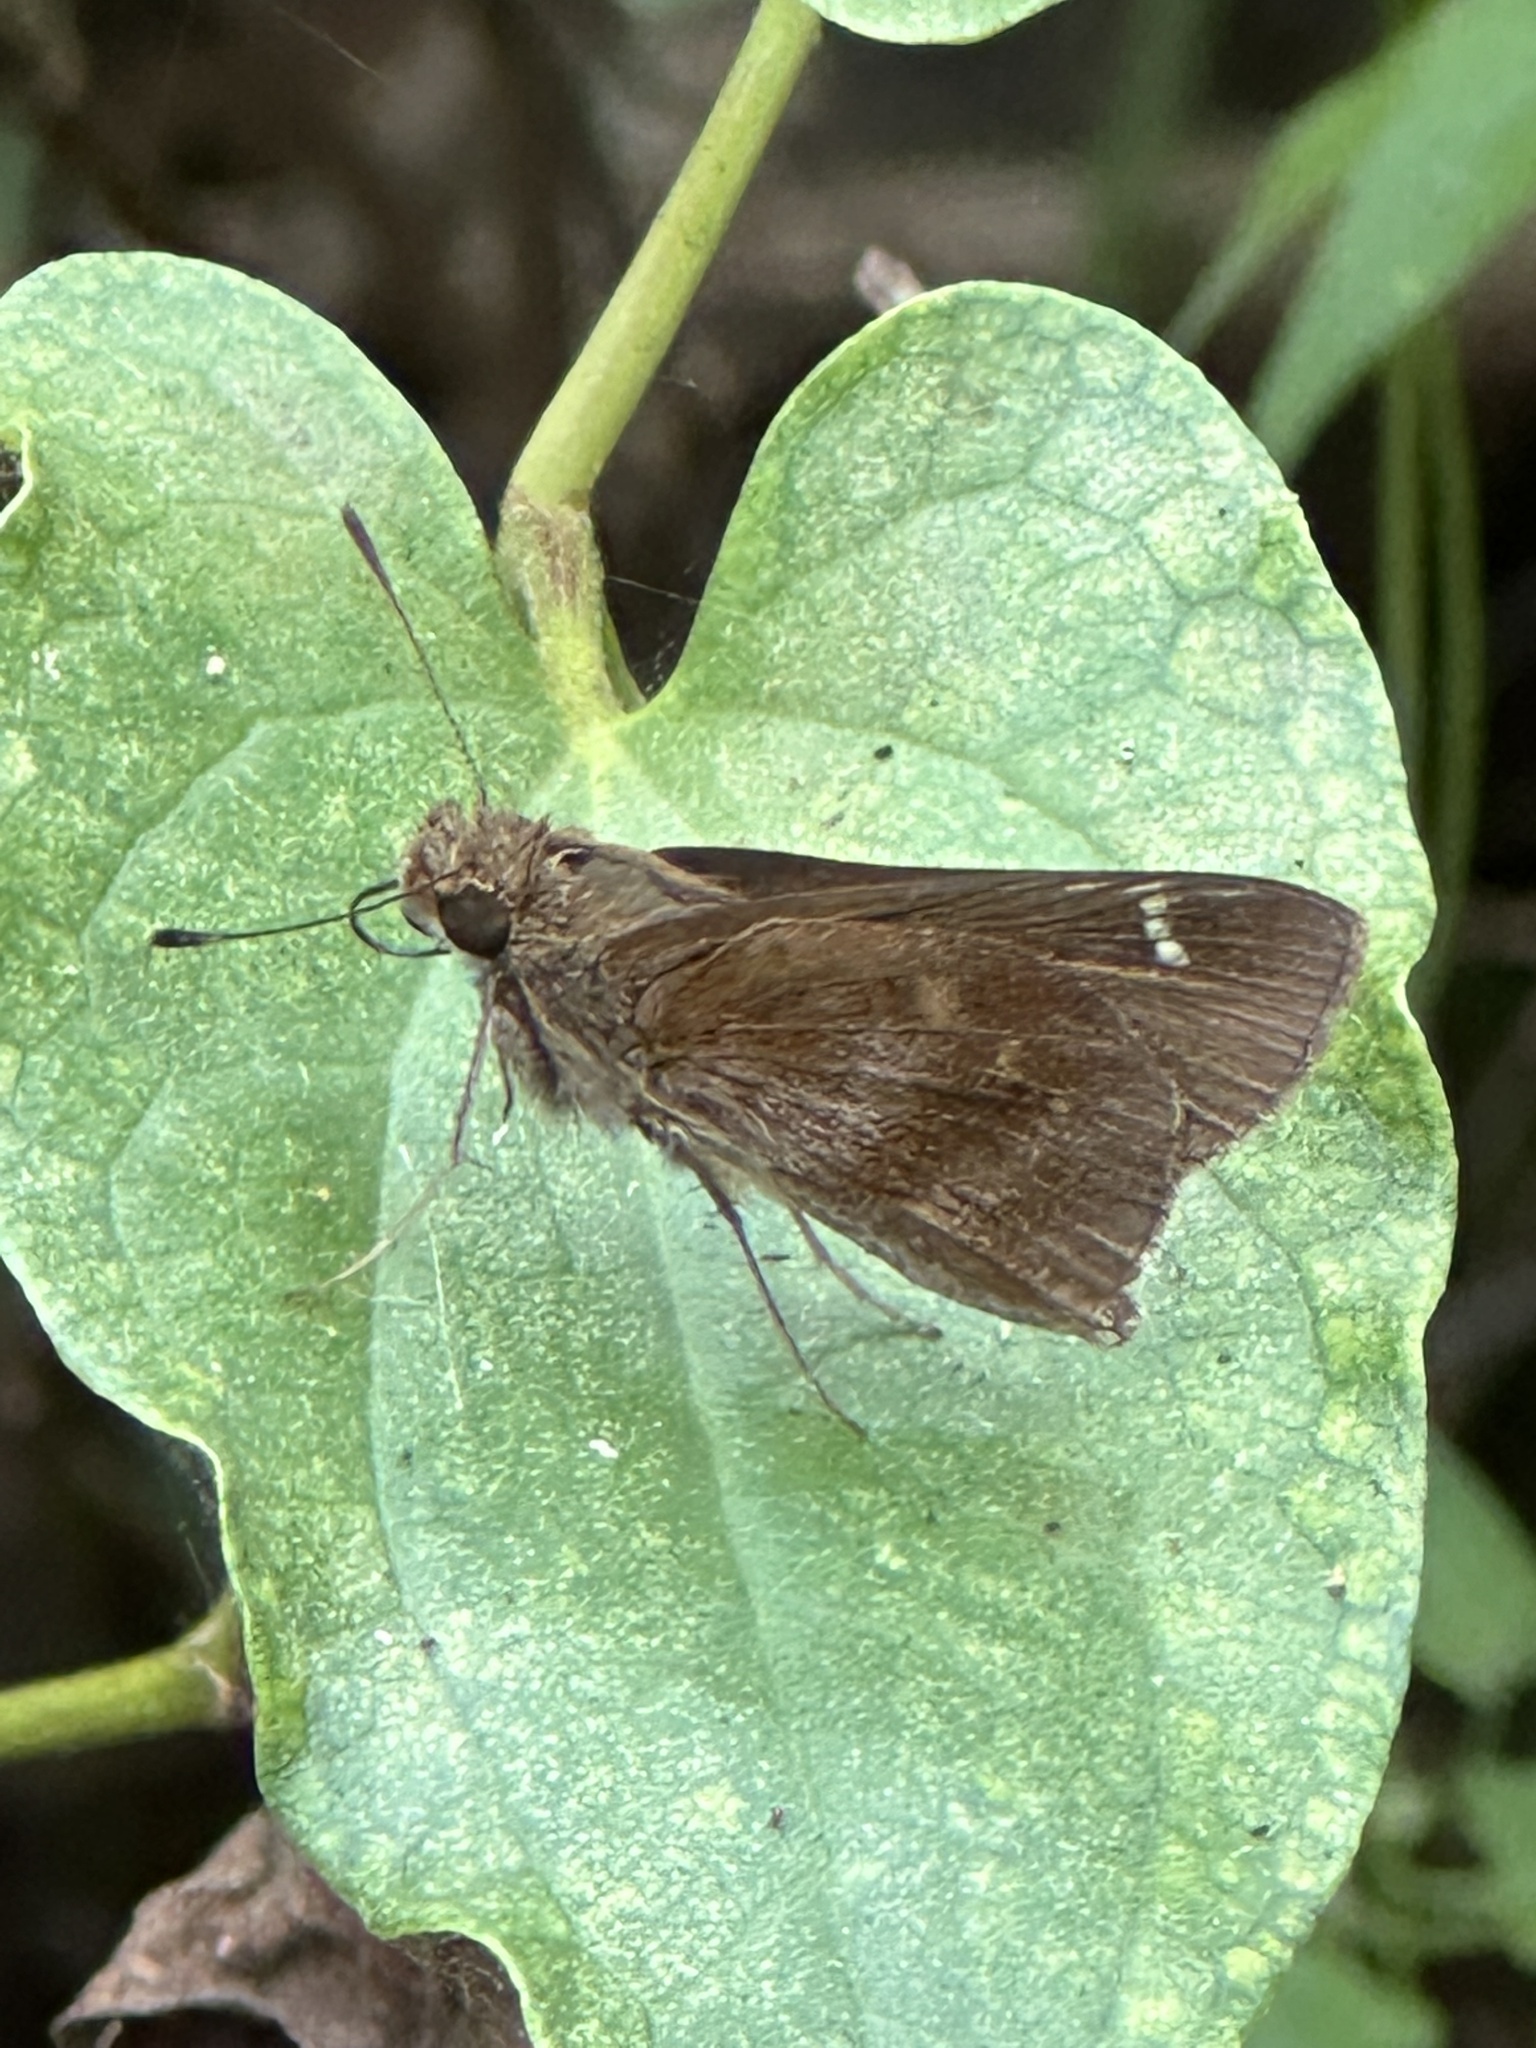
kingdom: Animalia
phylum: Arthropoda
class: Insecta
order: Lepidoptera
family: Hesperiidae
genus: Lerema
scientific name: Lerema accius
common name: Clouded skipper
